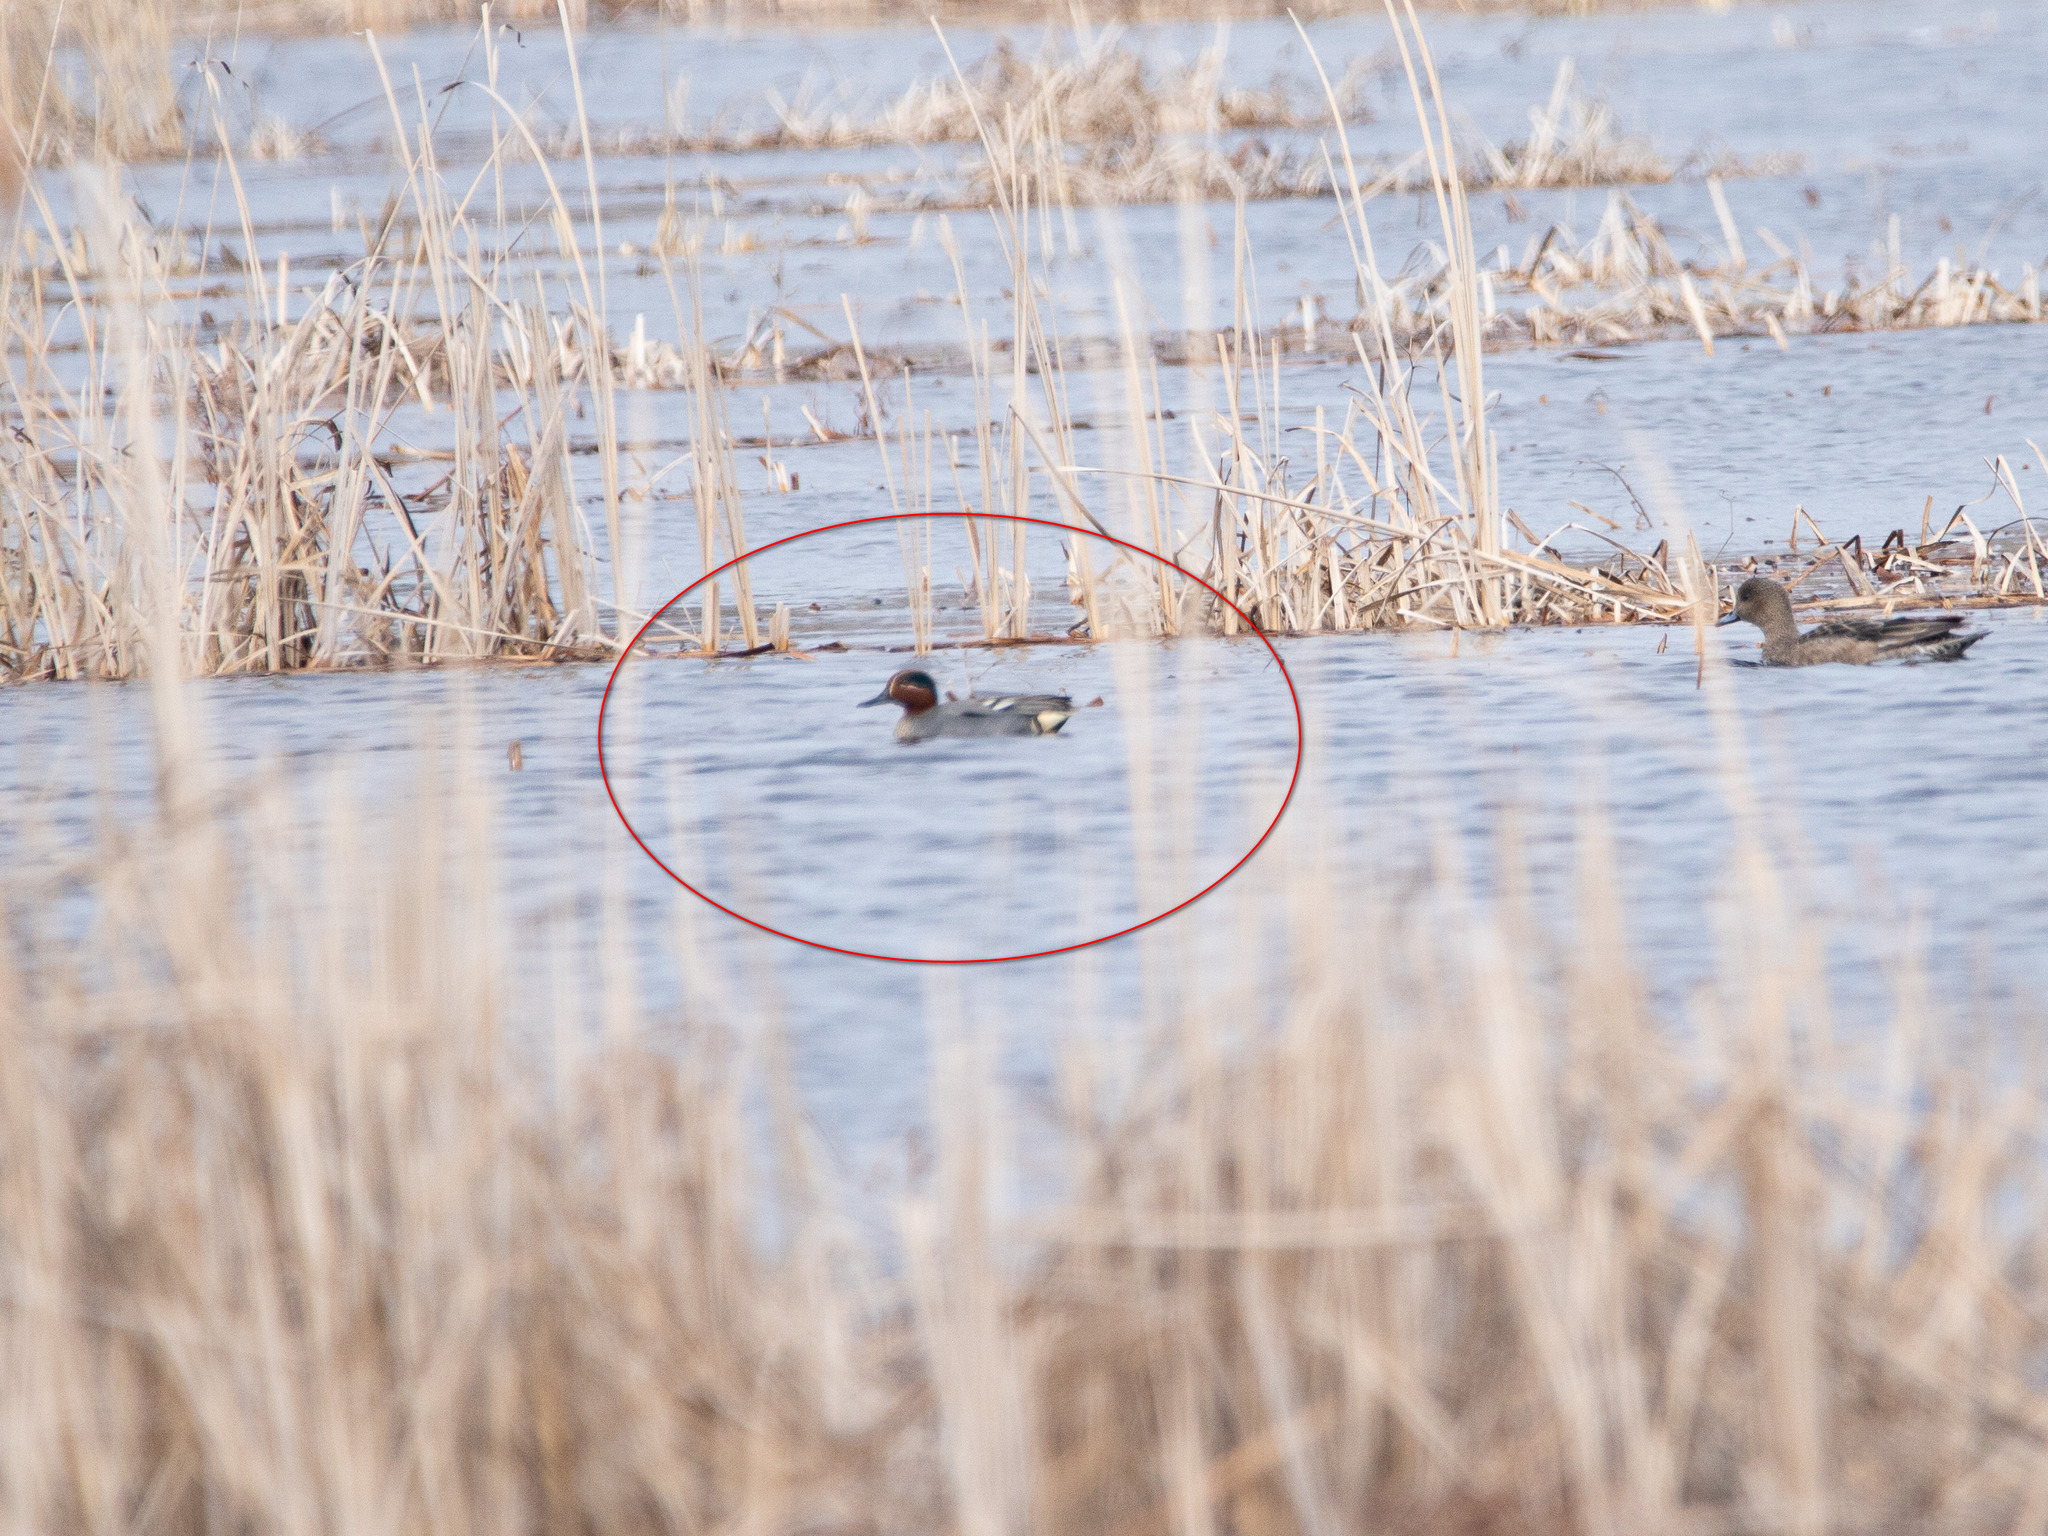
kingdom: Animalia
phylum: Chordata
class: Aves
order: Anseriformes
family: Anatidae
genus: Anas
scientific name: Anas crecca
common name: Eurasian teal
